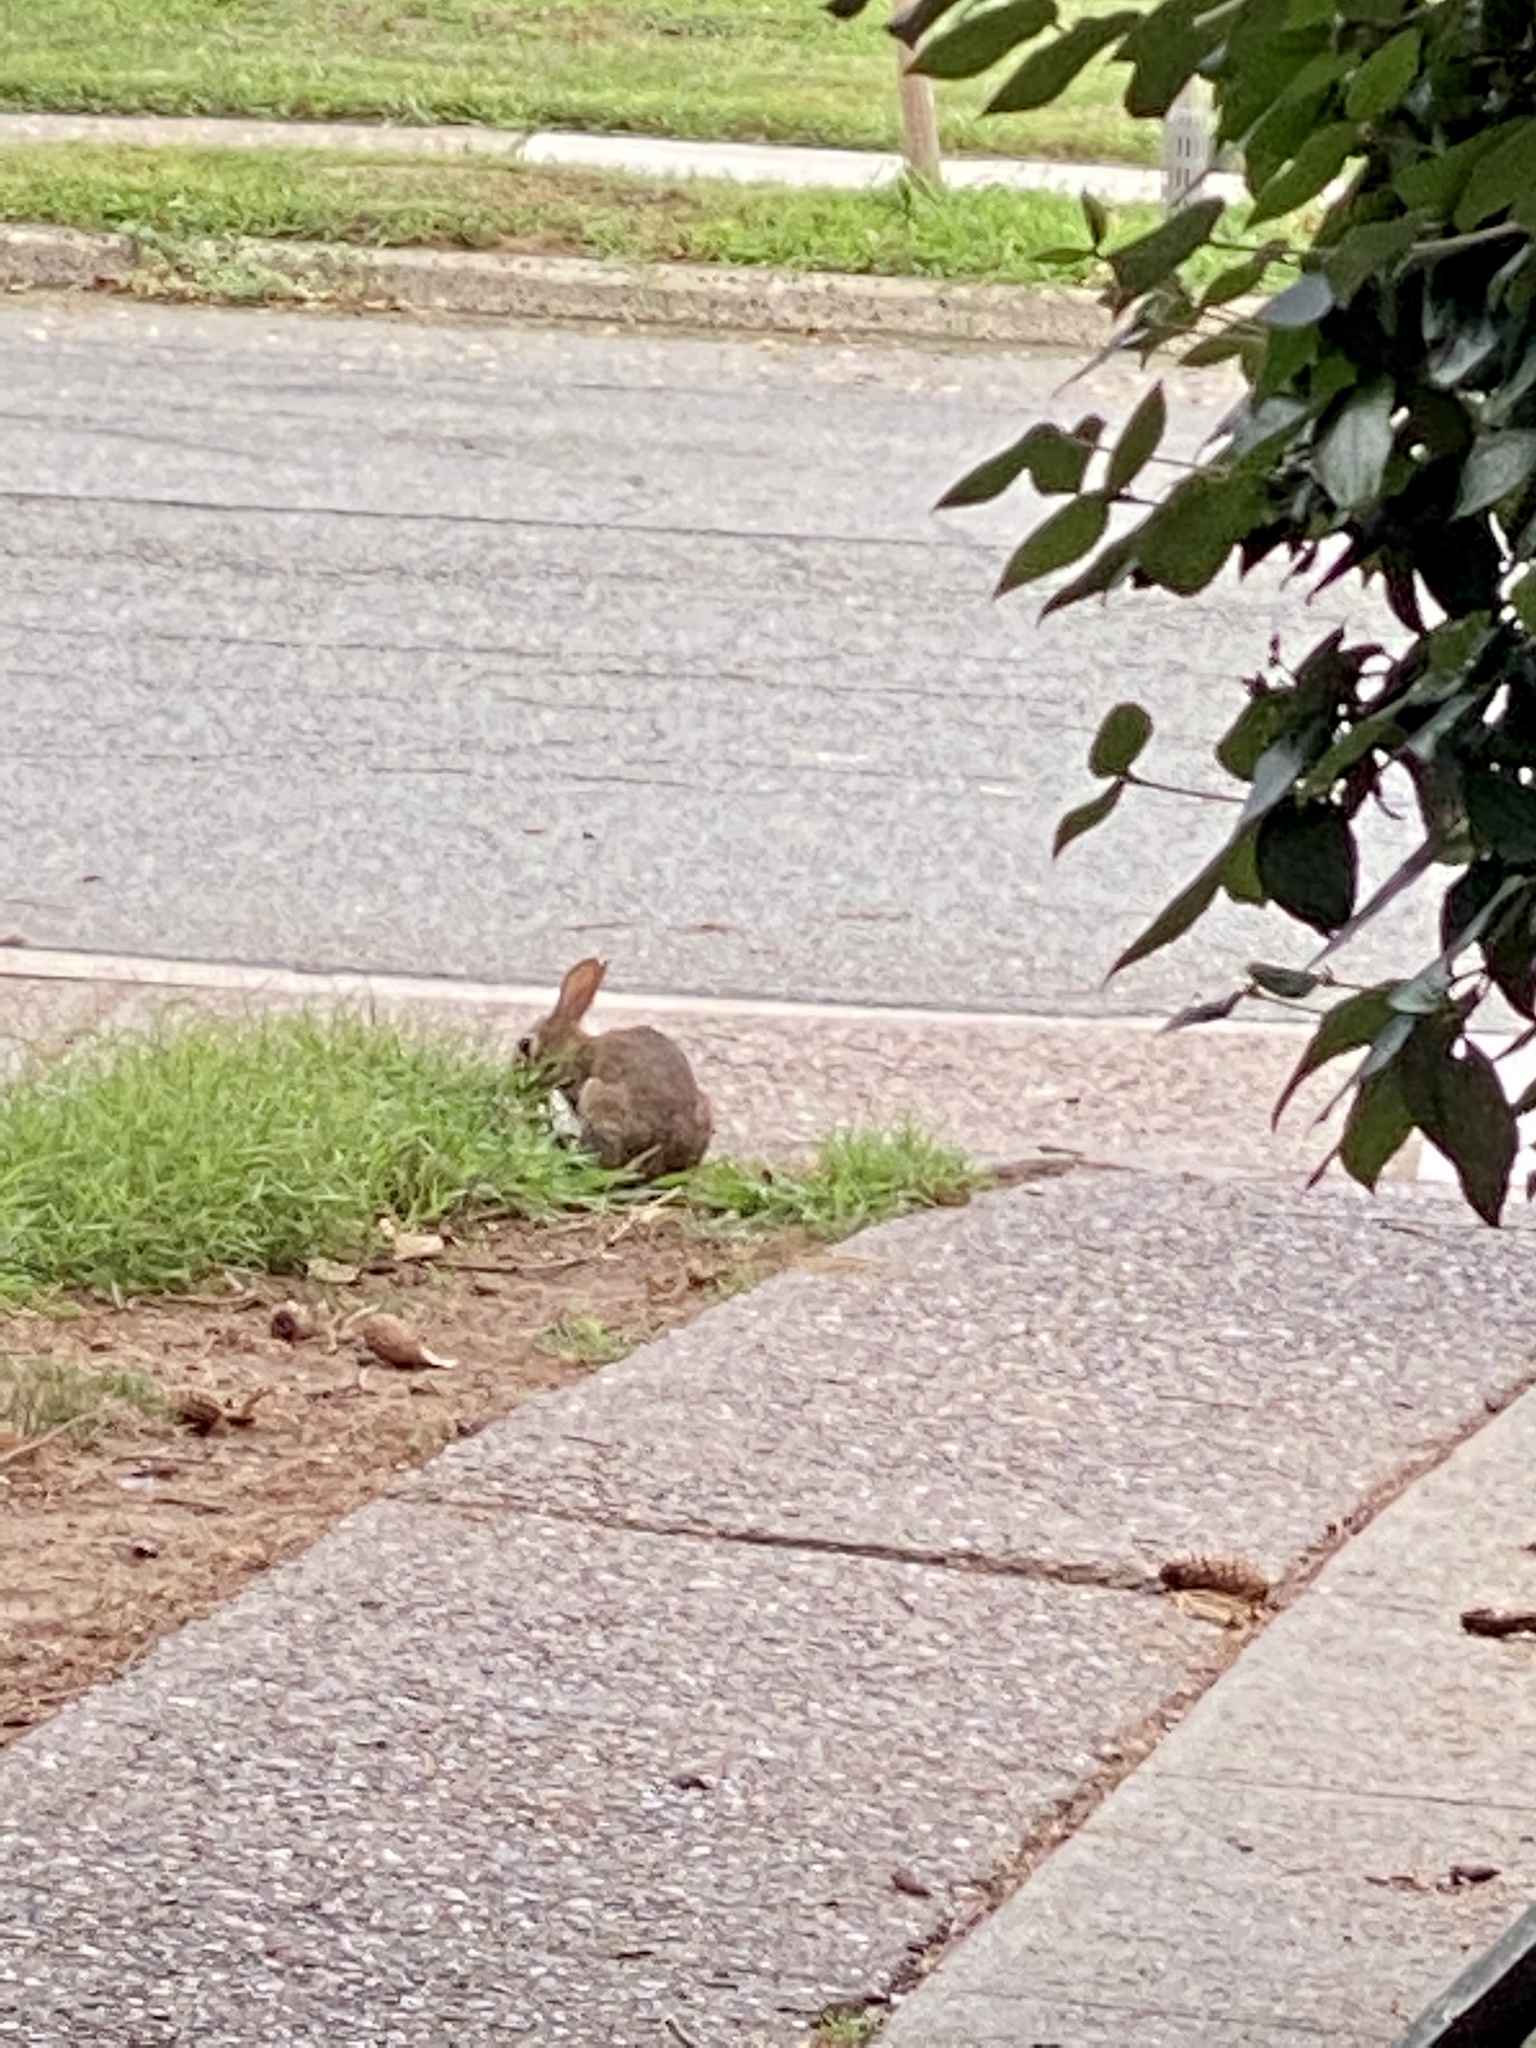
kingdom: Animalia
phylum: Chordata
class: Mammalia
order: Lagomorpha
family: Leporidae
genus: Sylvilagus
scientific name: Sylvilagus floridanus
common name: Eastern cottontail
